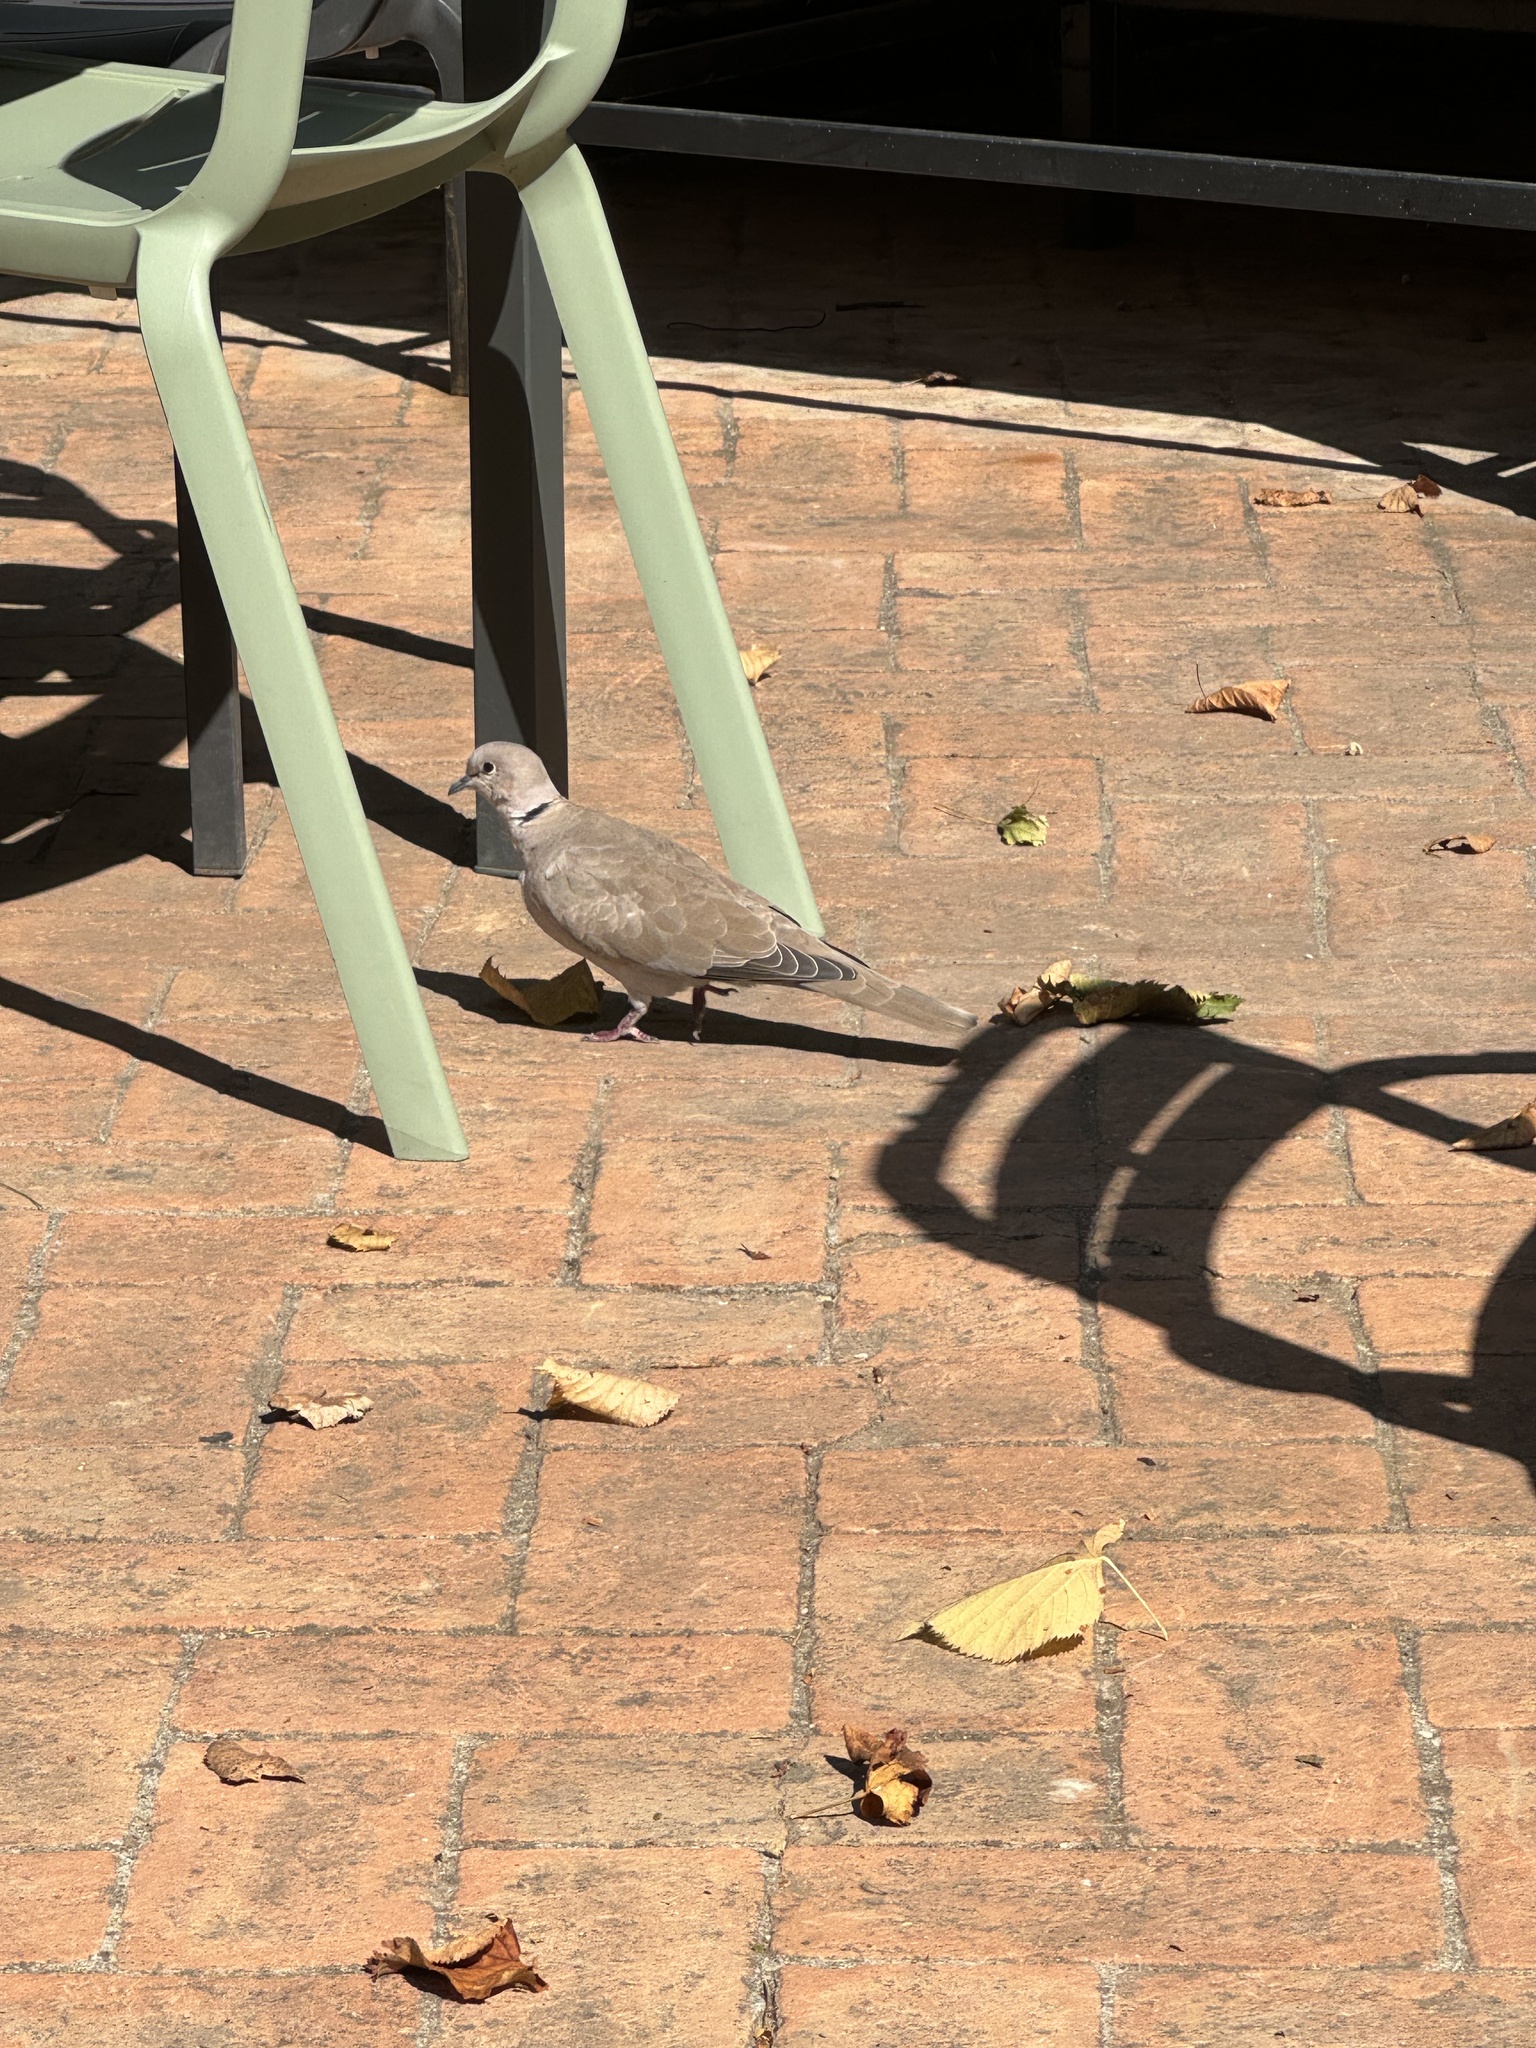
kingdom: Animalia
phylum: Chordata
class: Aves
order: Columbiformes
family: Columbidae
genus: Streptopelia
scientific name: Streptopelia decaocto
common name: Eurasian collared dove
